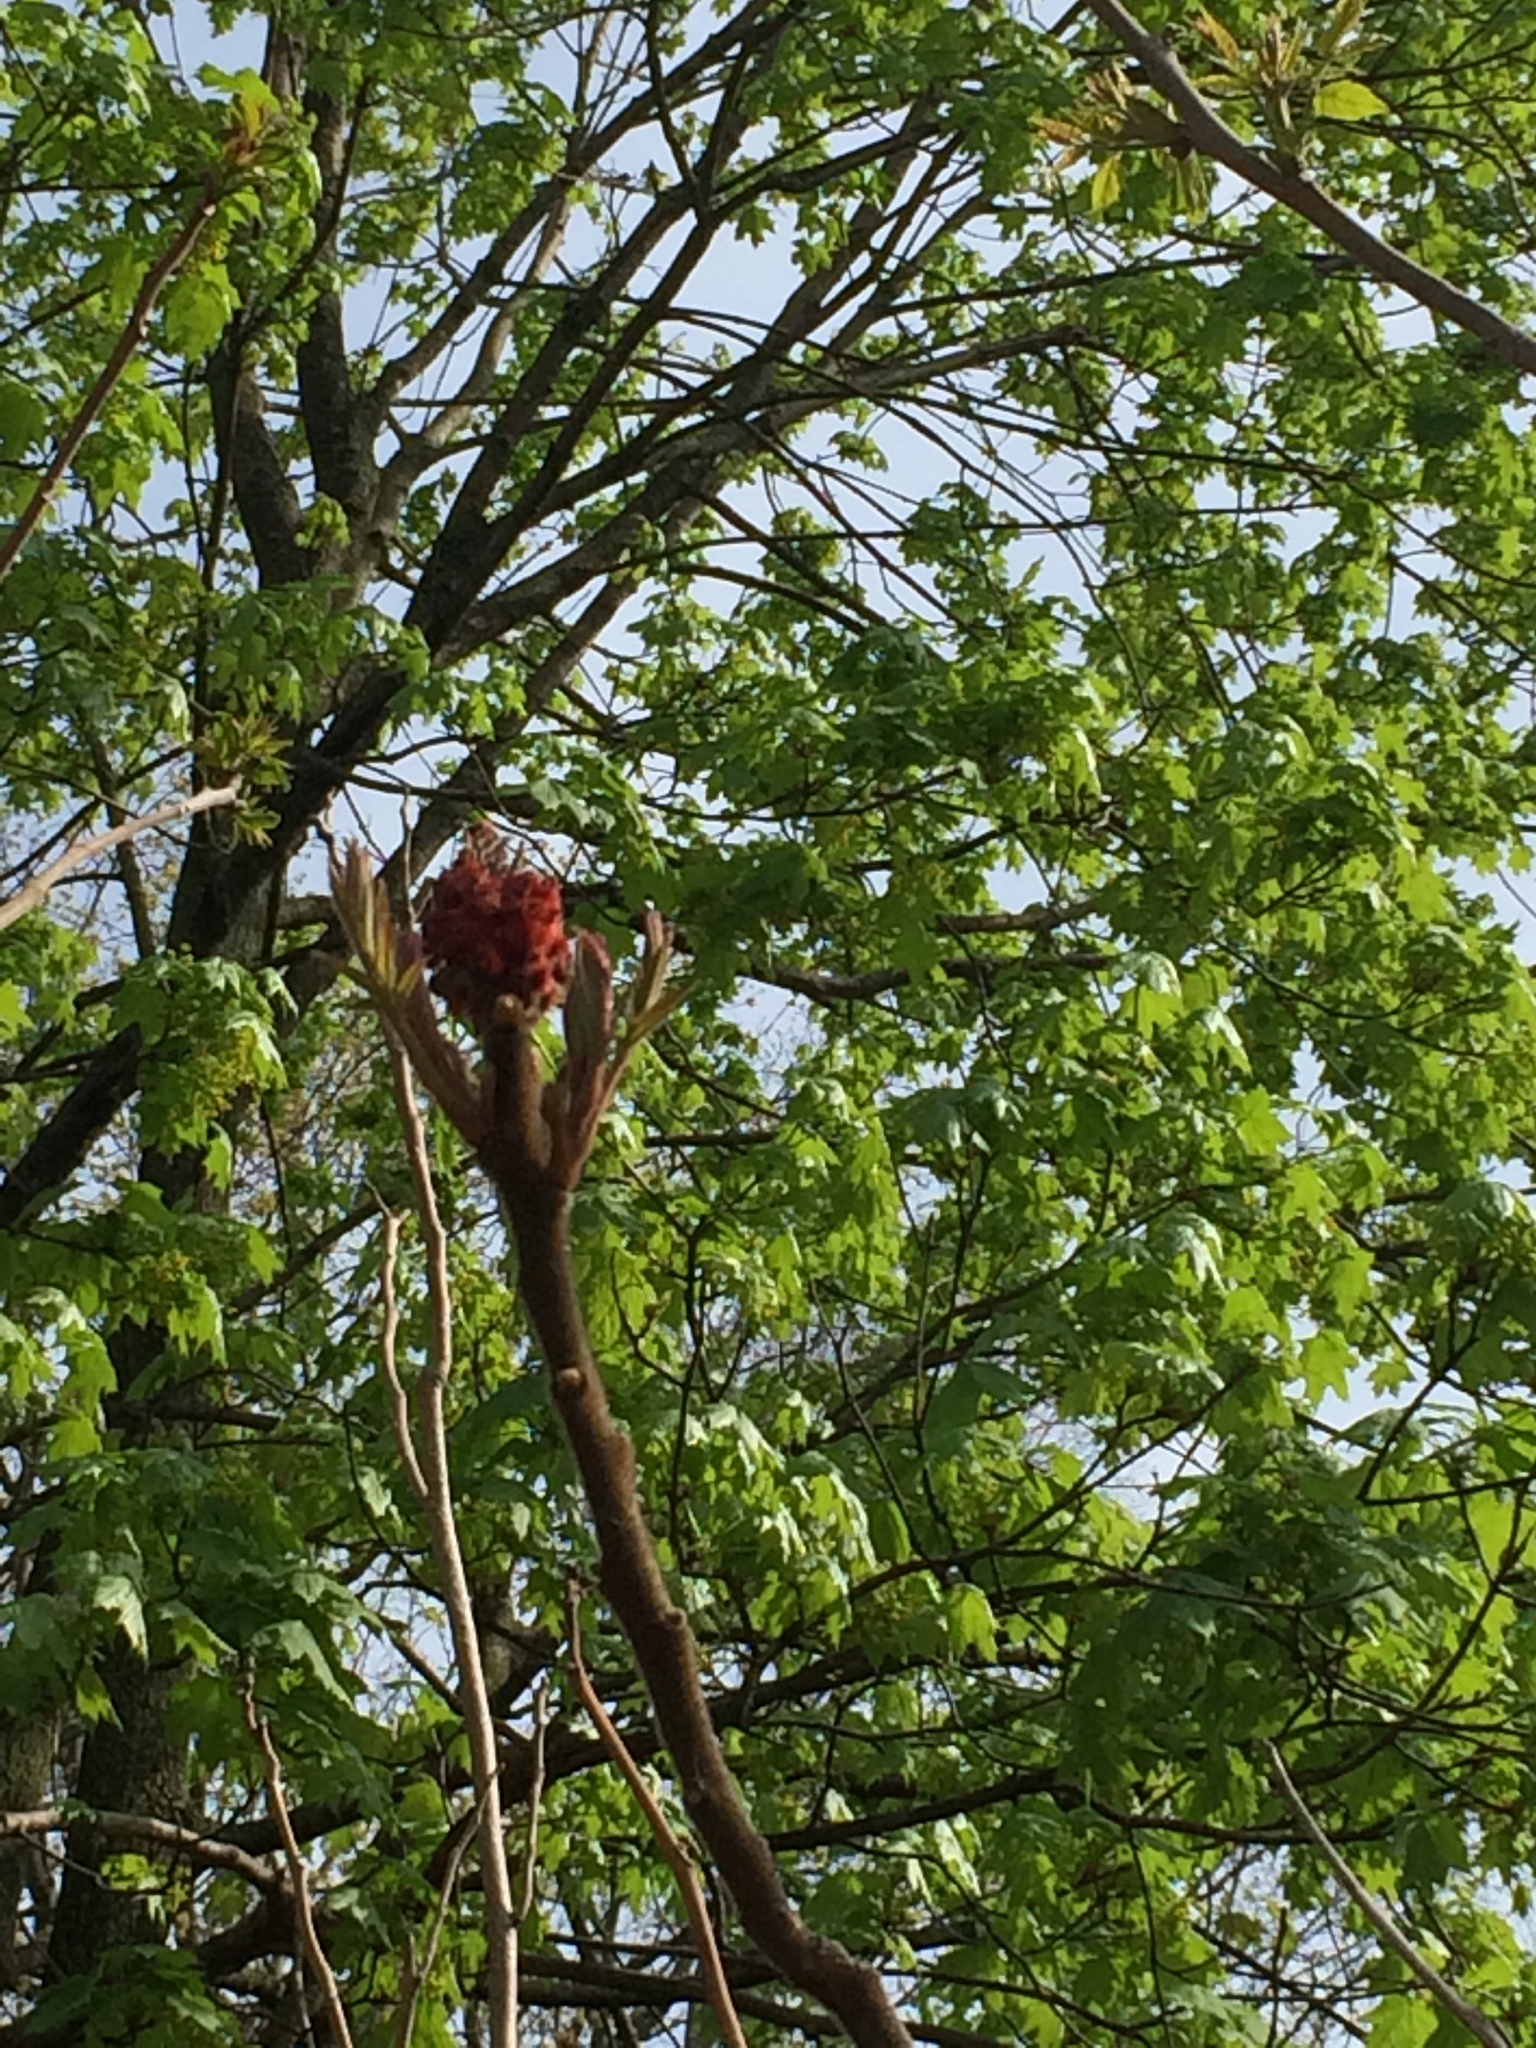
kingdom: Plantae
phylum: Tracheophyta
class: Magnoliopsida
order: Sapindales
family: Simaroubaceae
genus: Ailanthus
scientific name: Ailanthus altissima
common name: Tree-of-heaven
